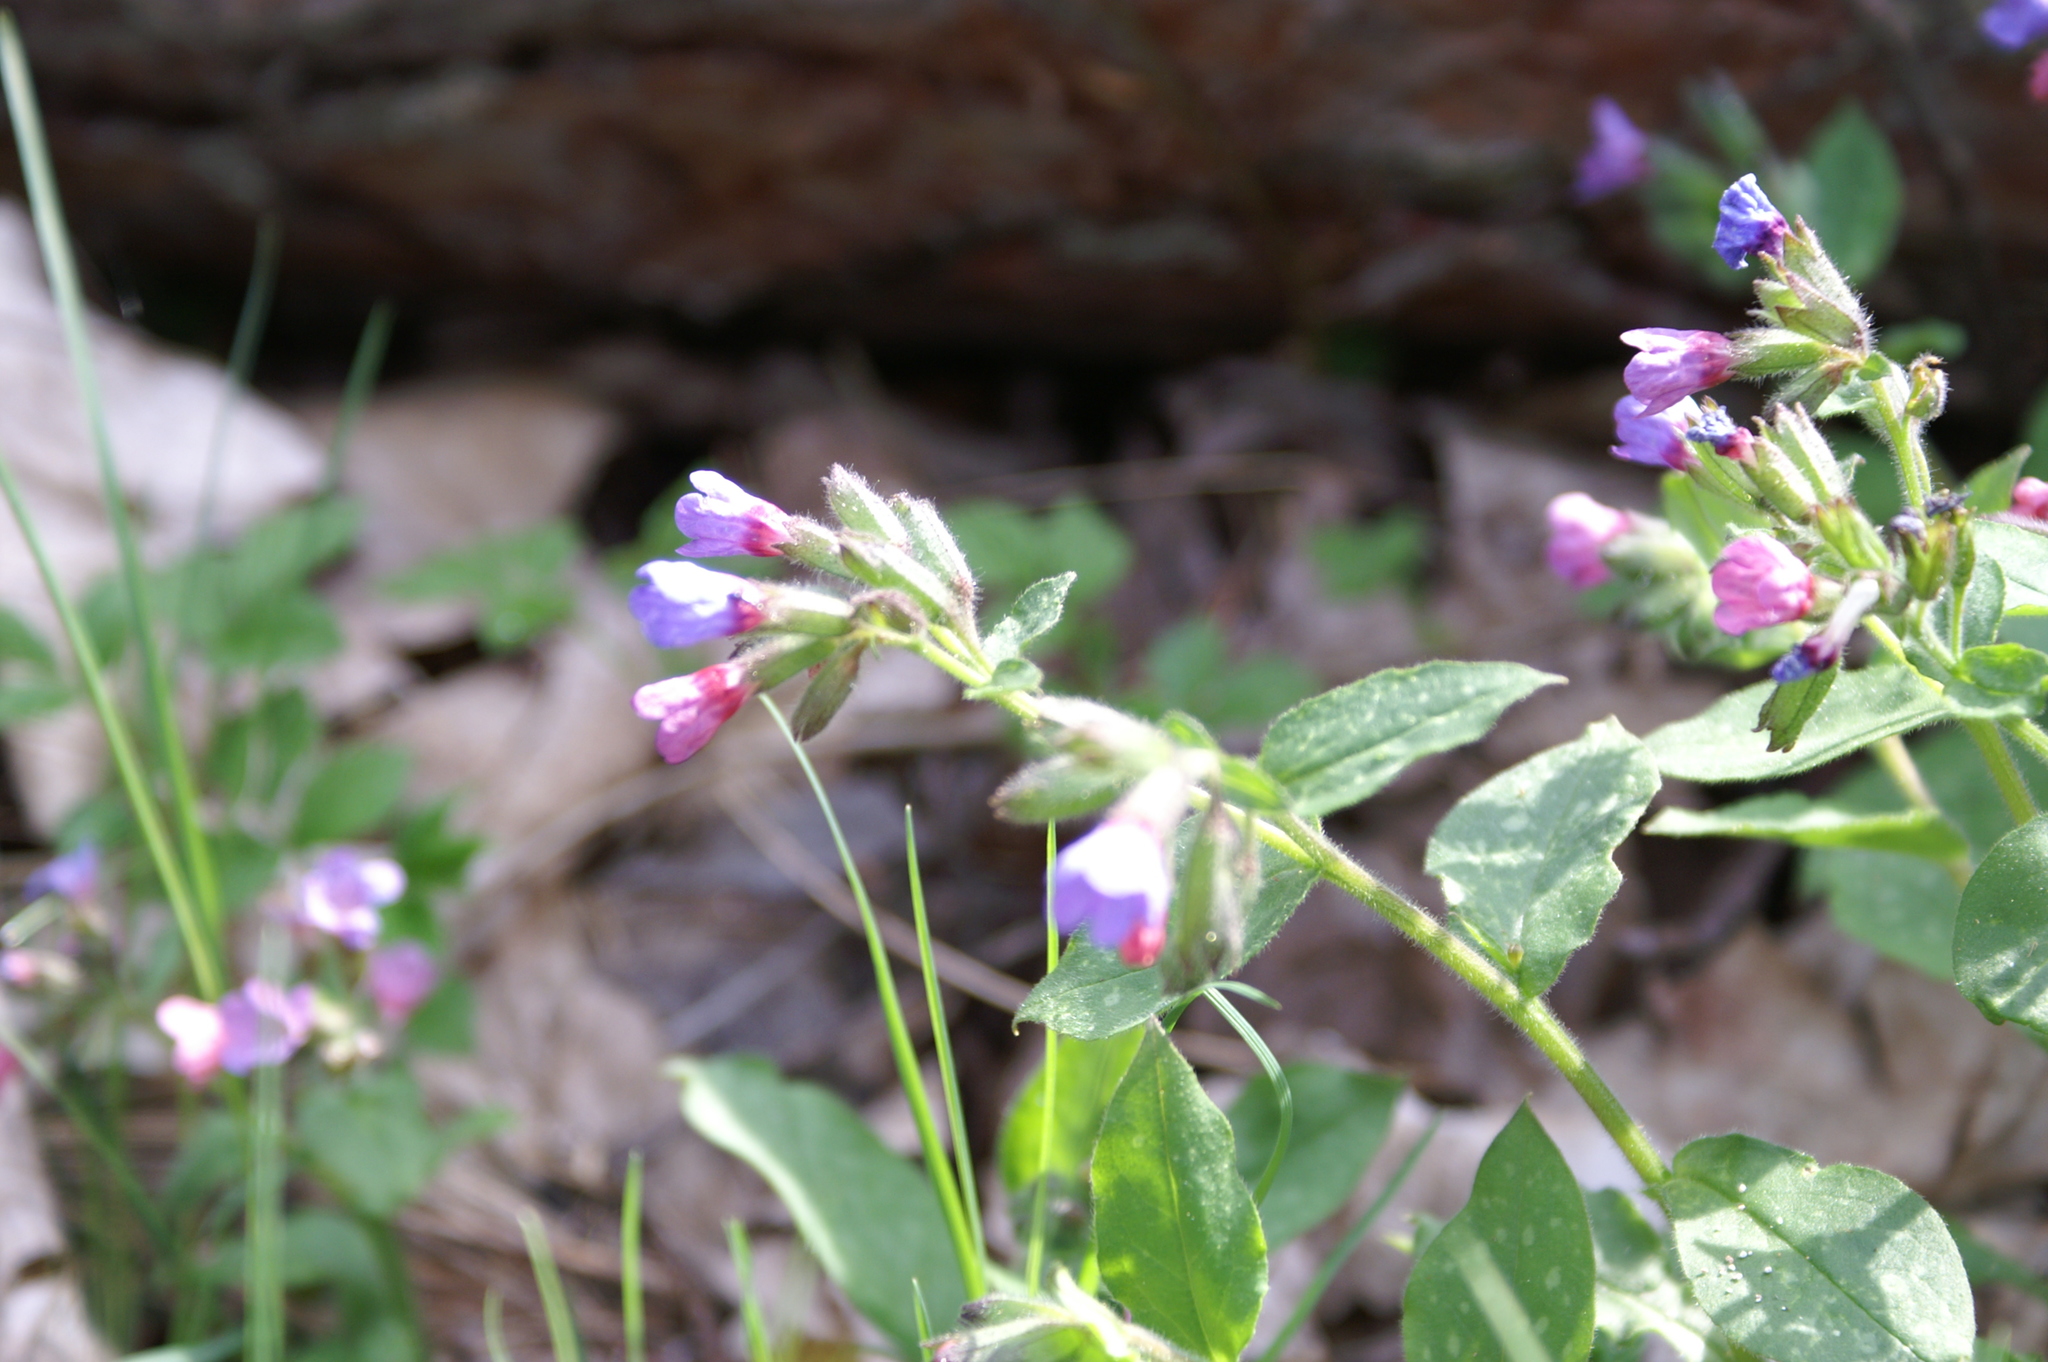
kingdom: Plantae
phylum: Tracheophyta
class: Magnoliopsida
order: Boraginales
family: Boraginaceae
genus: Pulmonaria
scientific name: Pulmonaria officinalis
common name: Lungwort
